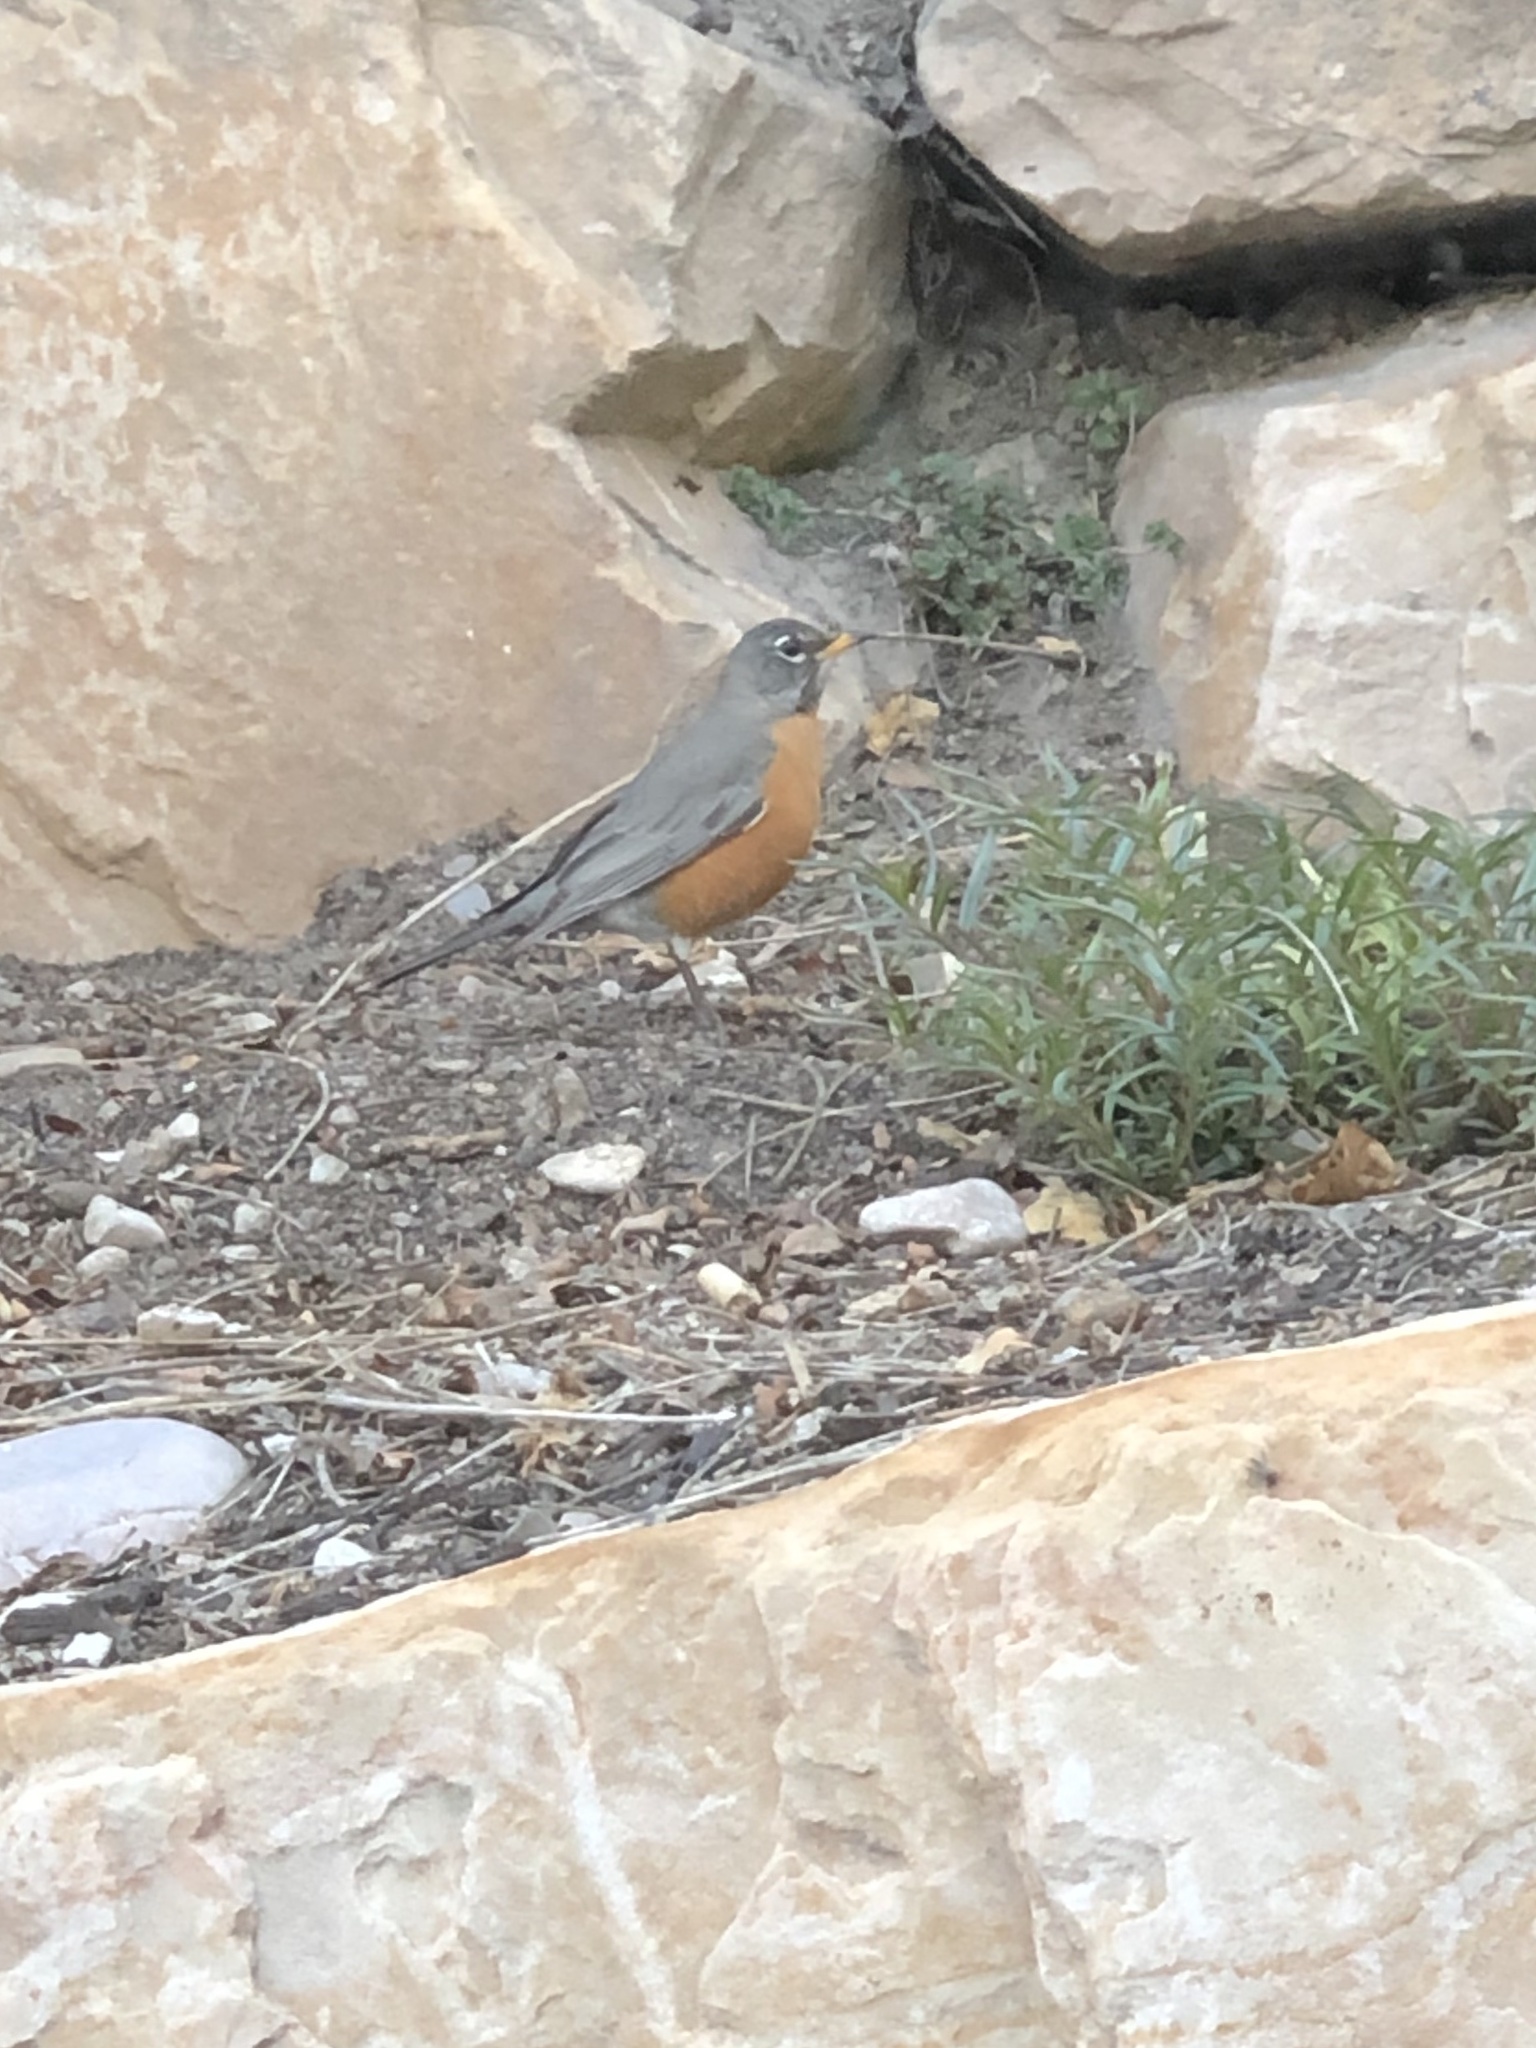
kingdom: Animalia
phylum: Chordata
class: Aves
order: Passeriformes
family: Turdidae
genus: Turdus
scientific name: Turdus migratorius
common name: American robin
